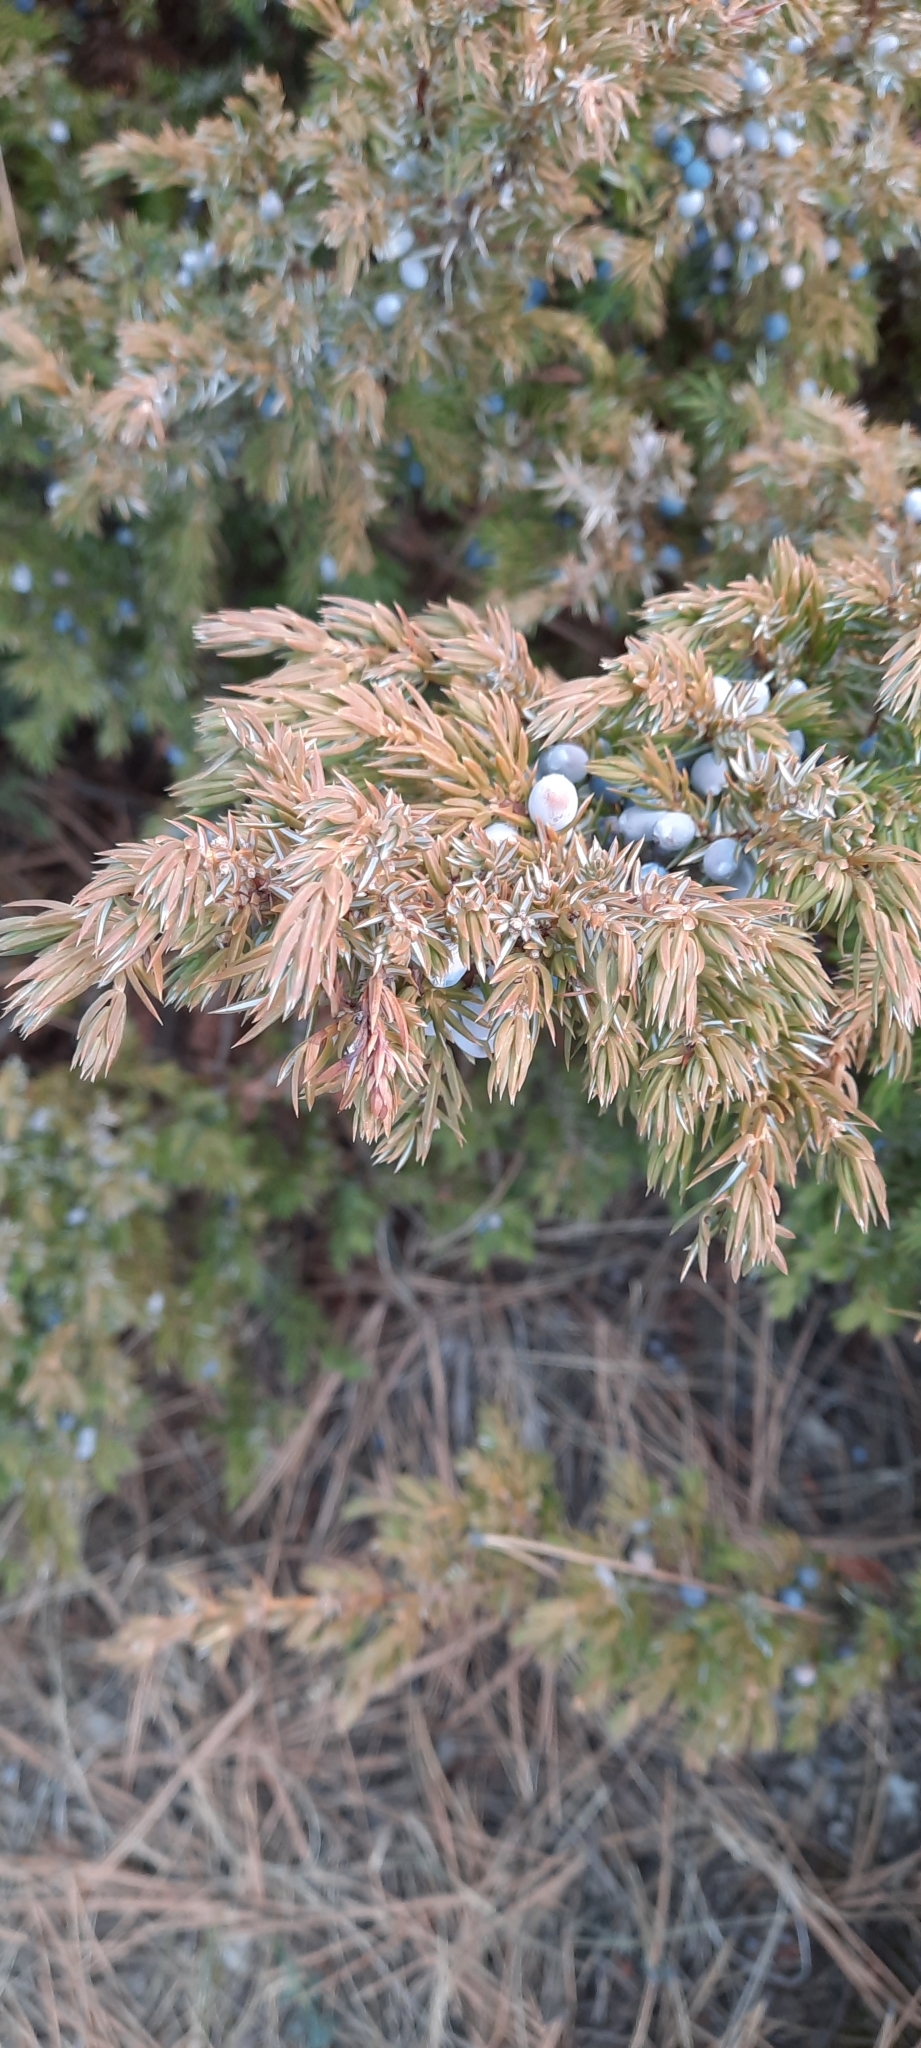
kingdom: Plantae
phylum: Tracheophyta
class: Pinopsida
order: Pinales
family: Cupressaceae
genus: Juniperus
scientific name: Juniperus communis
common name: Common juniper
